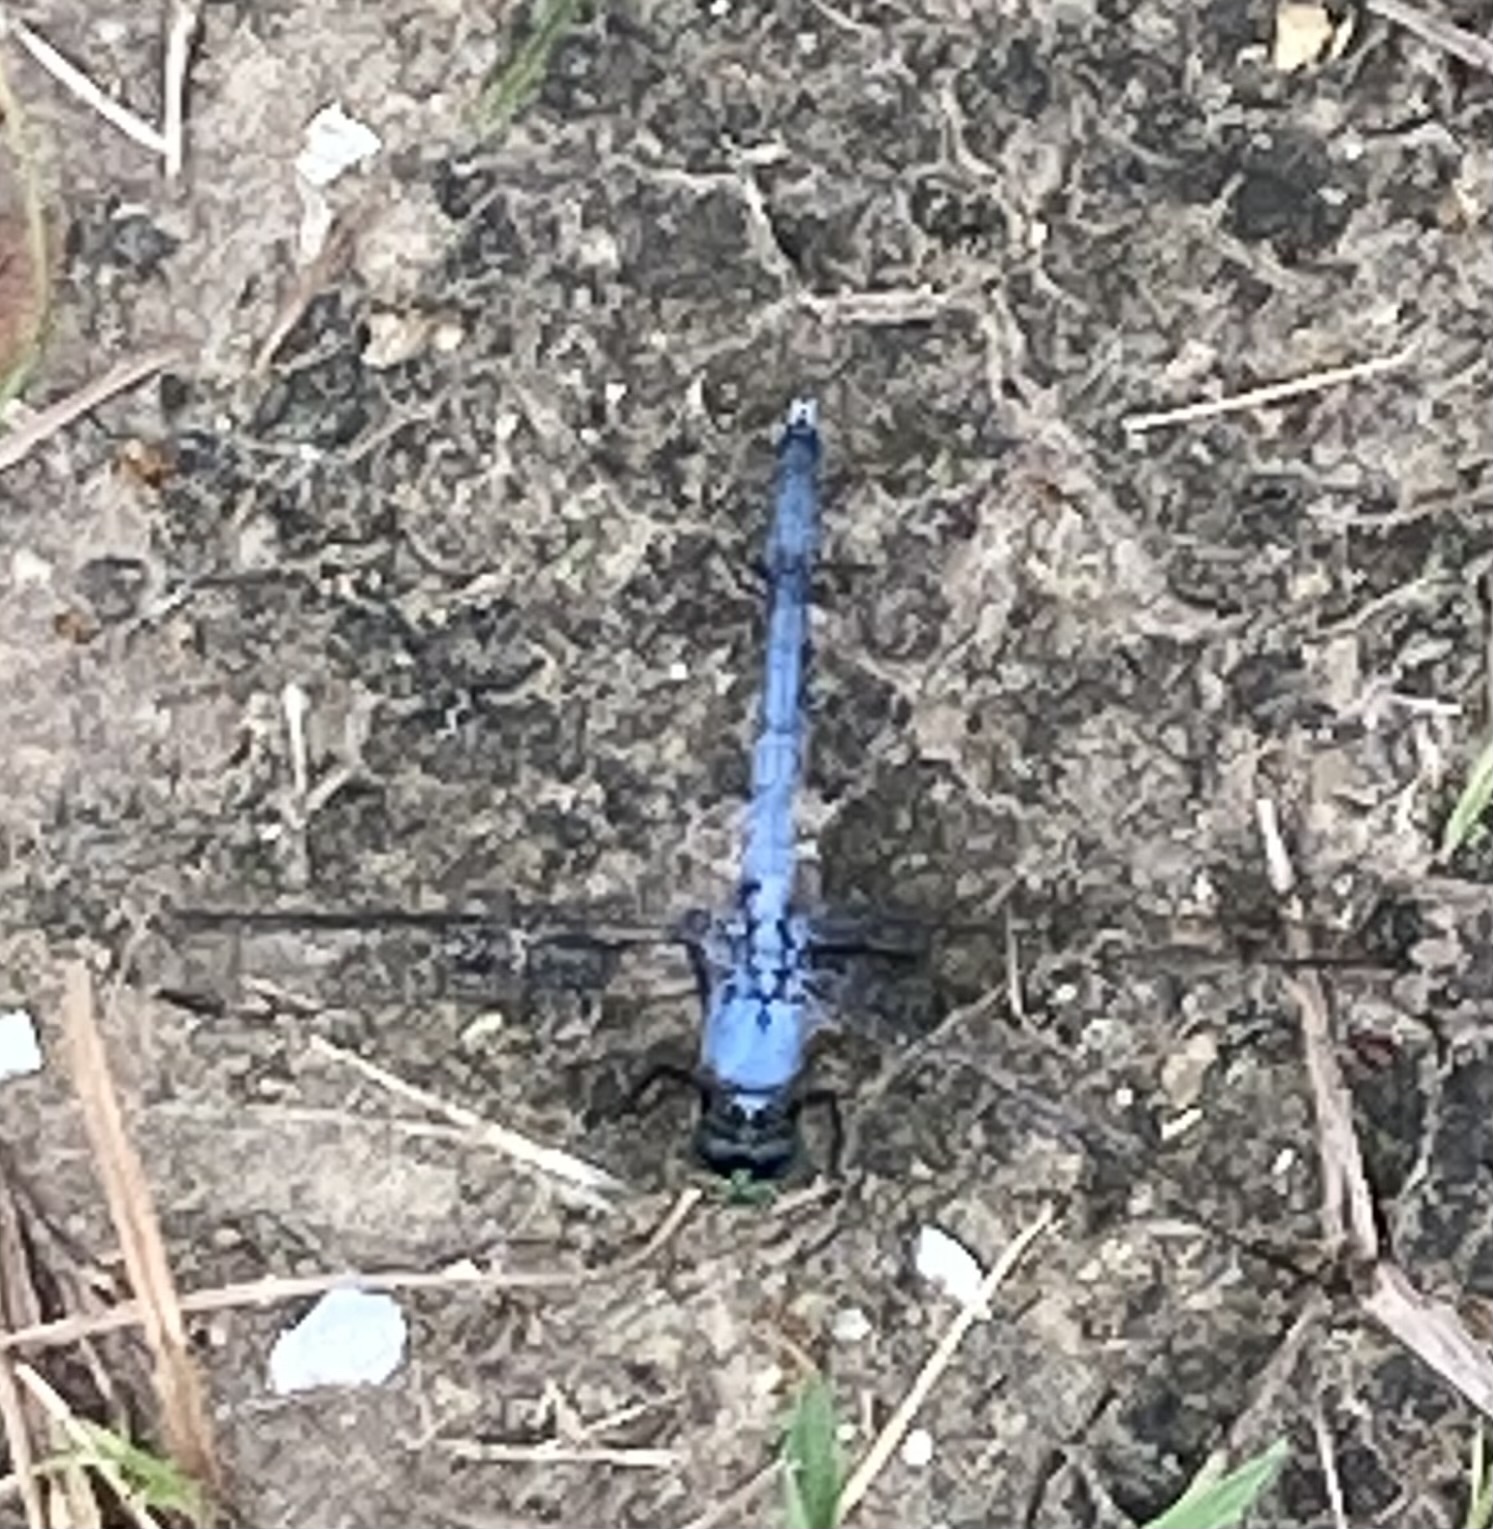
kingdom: Animalia
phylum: Arthropoda
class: Insecta
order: Odonata
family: Libellulidae
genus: Erythemis
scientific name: Erythemis simplicicollis
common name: Eastern pondhawk
